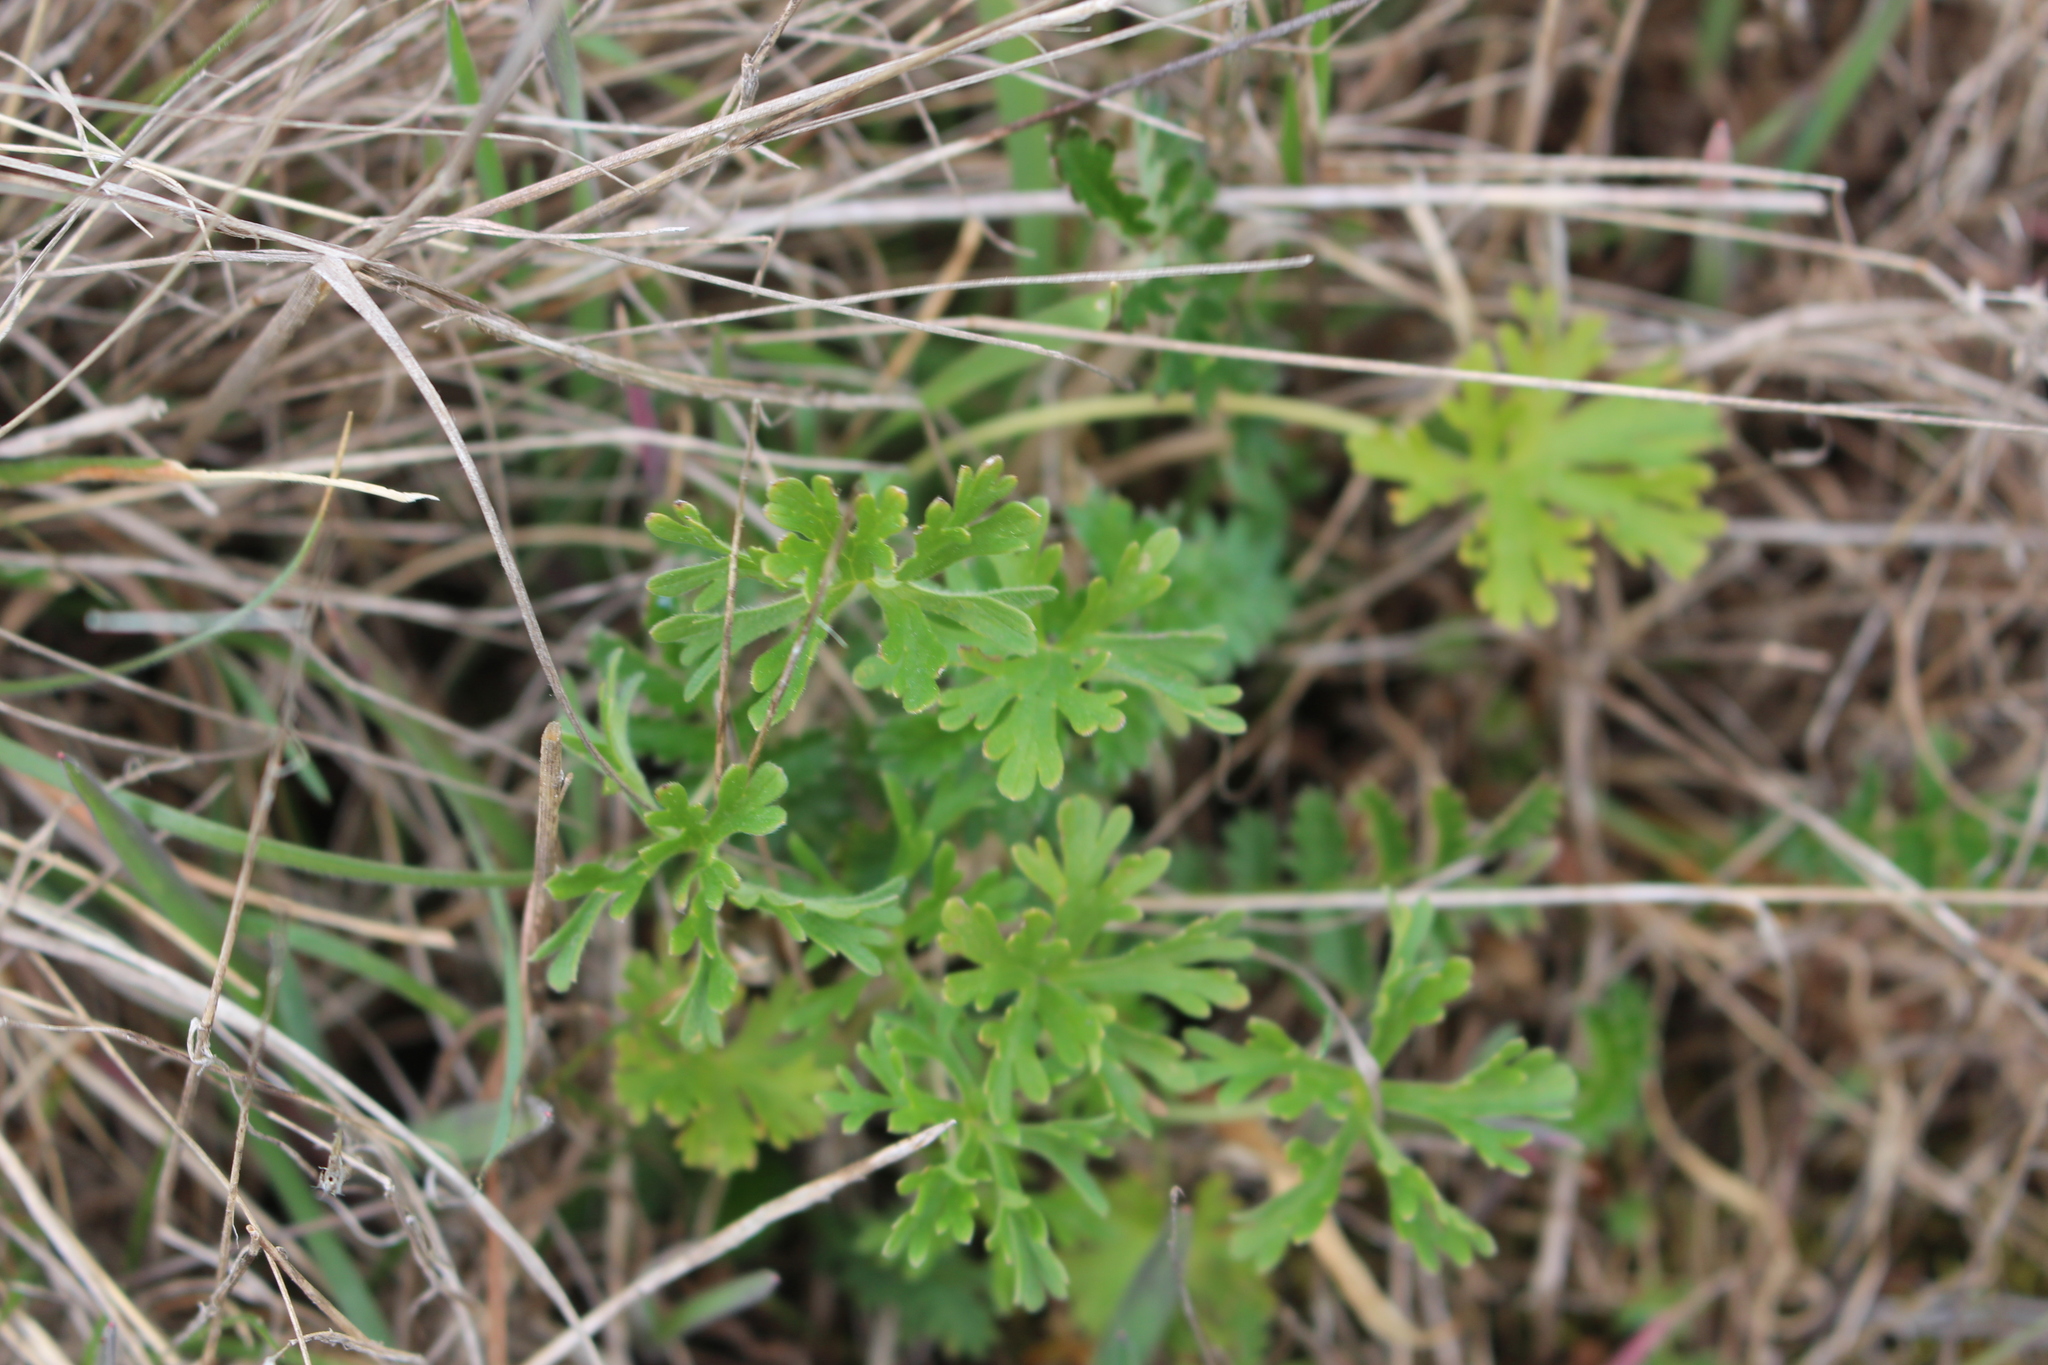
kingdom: Plantae
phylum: Tracheophyta
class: Magnoliopsida
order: Geraniales
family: Geraniaceae
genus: Geranium
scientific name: Geranium retrorsum
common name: New zealand geranium
